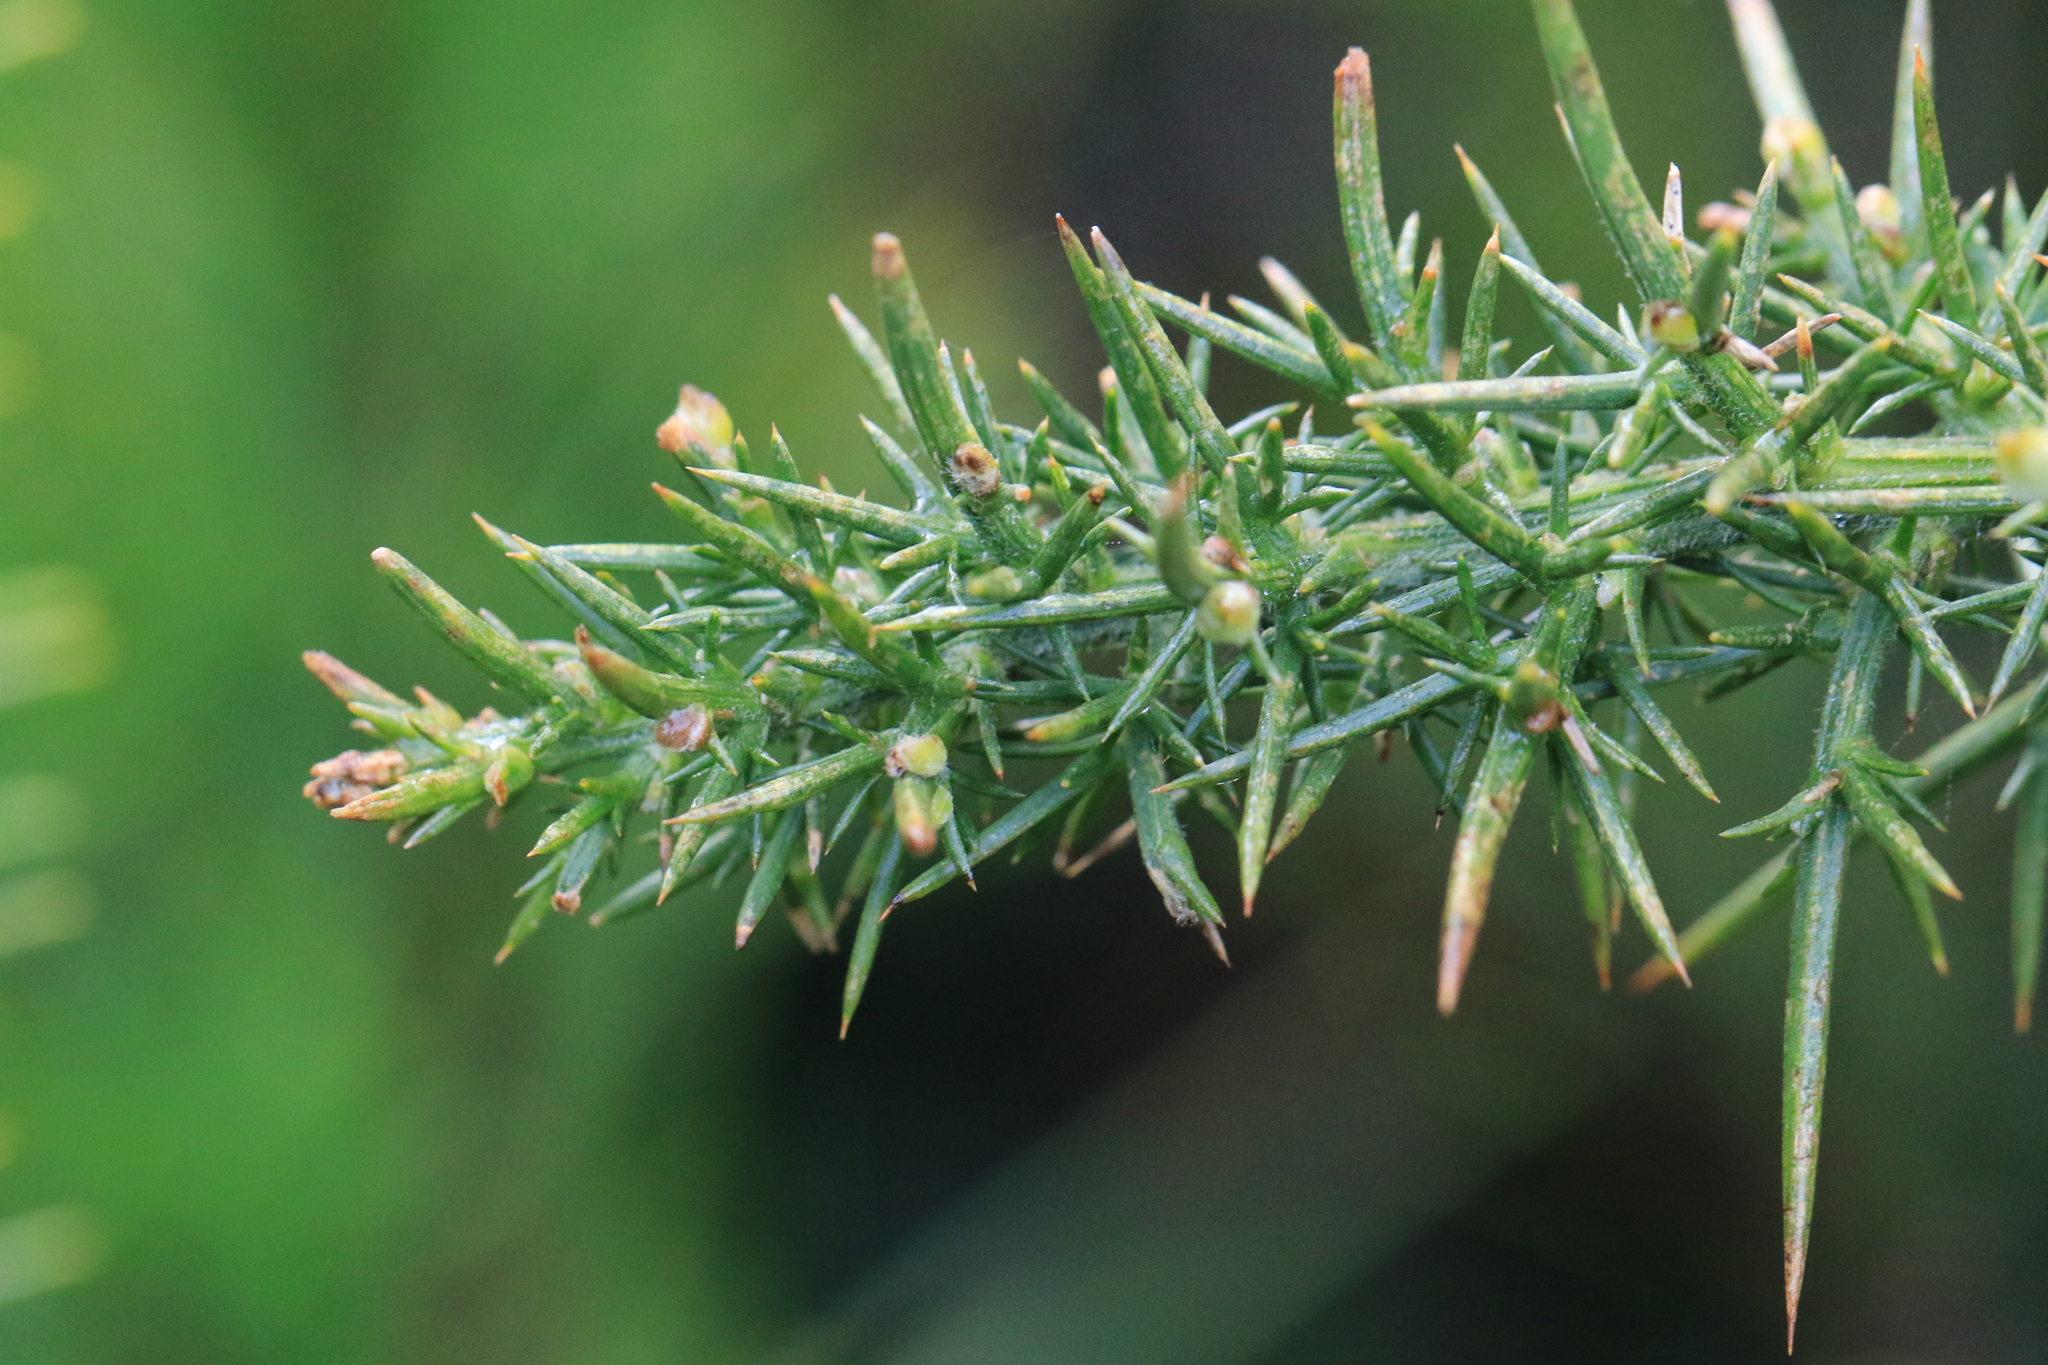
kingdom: Plantae
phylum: Tracheophyta
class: Magnoliopsida
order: Fabales
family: Fabaceae
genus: Ulex
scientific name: Ulex europaeus
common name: Common gorse
